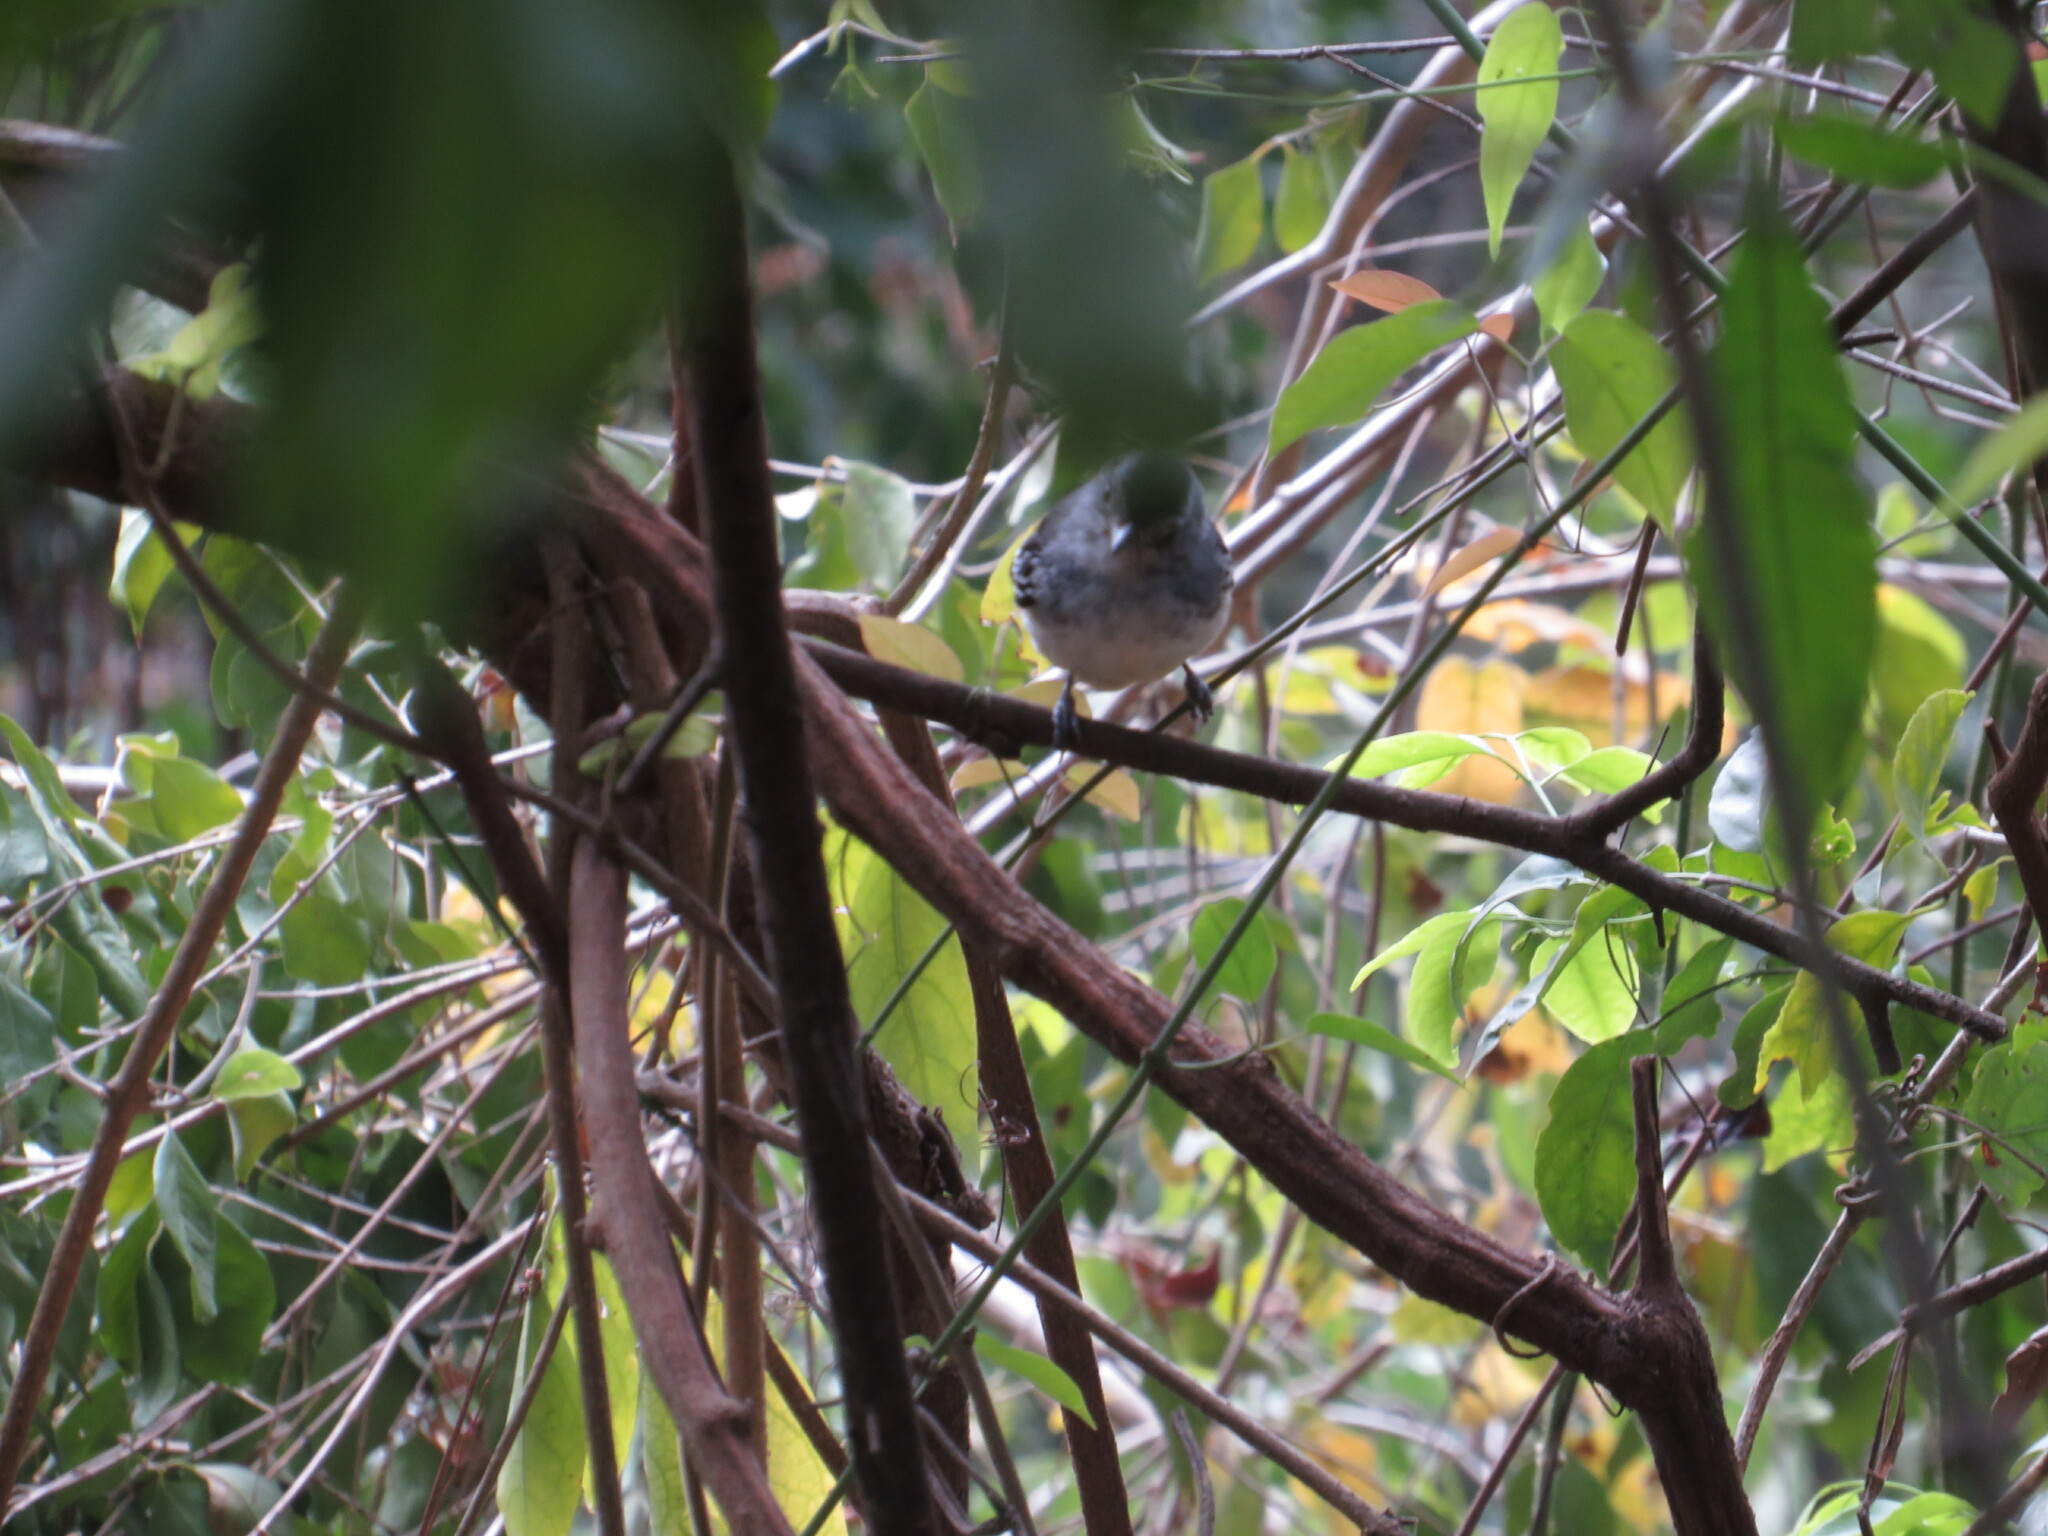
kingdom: Animalia
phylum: Chordata
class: Aves
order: Passeriformes
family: Thamnophilidae
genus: Thamnophilus
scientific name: Thamnophilus caerulescens
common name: Variable antshrike
